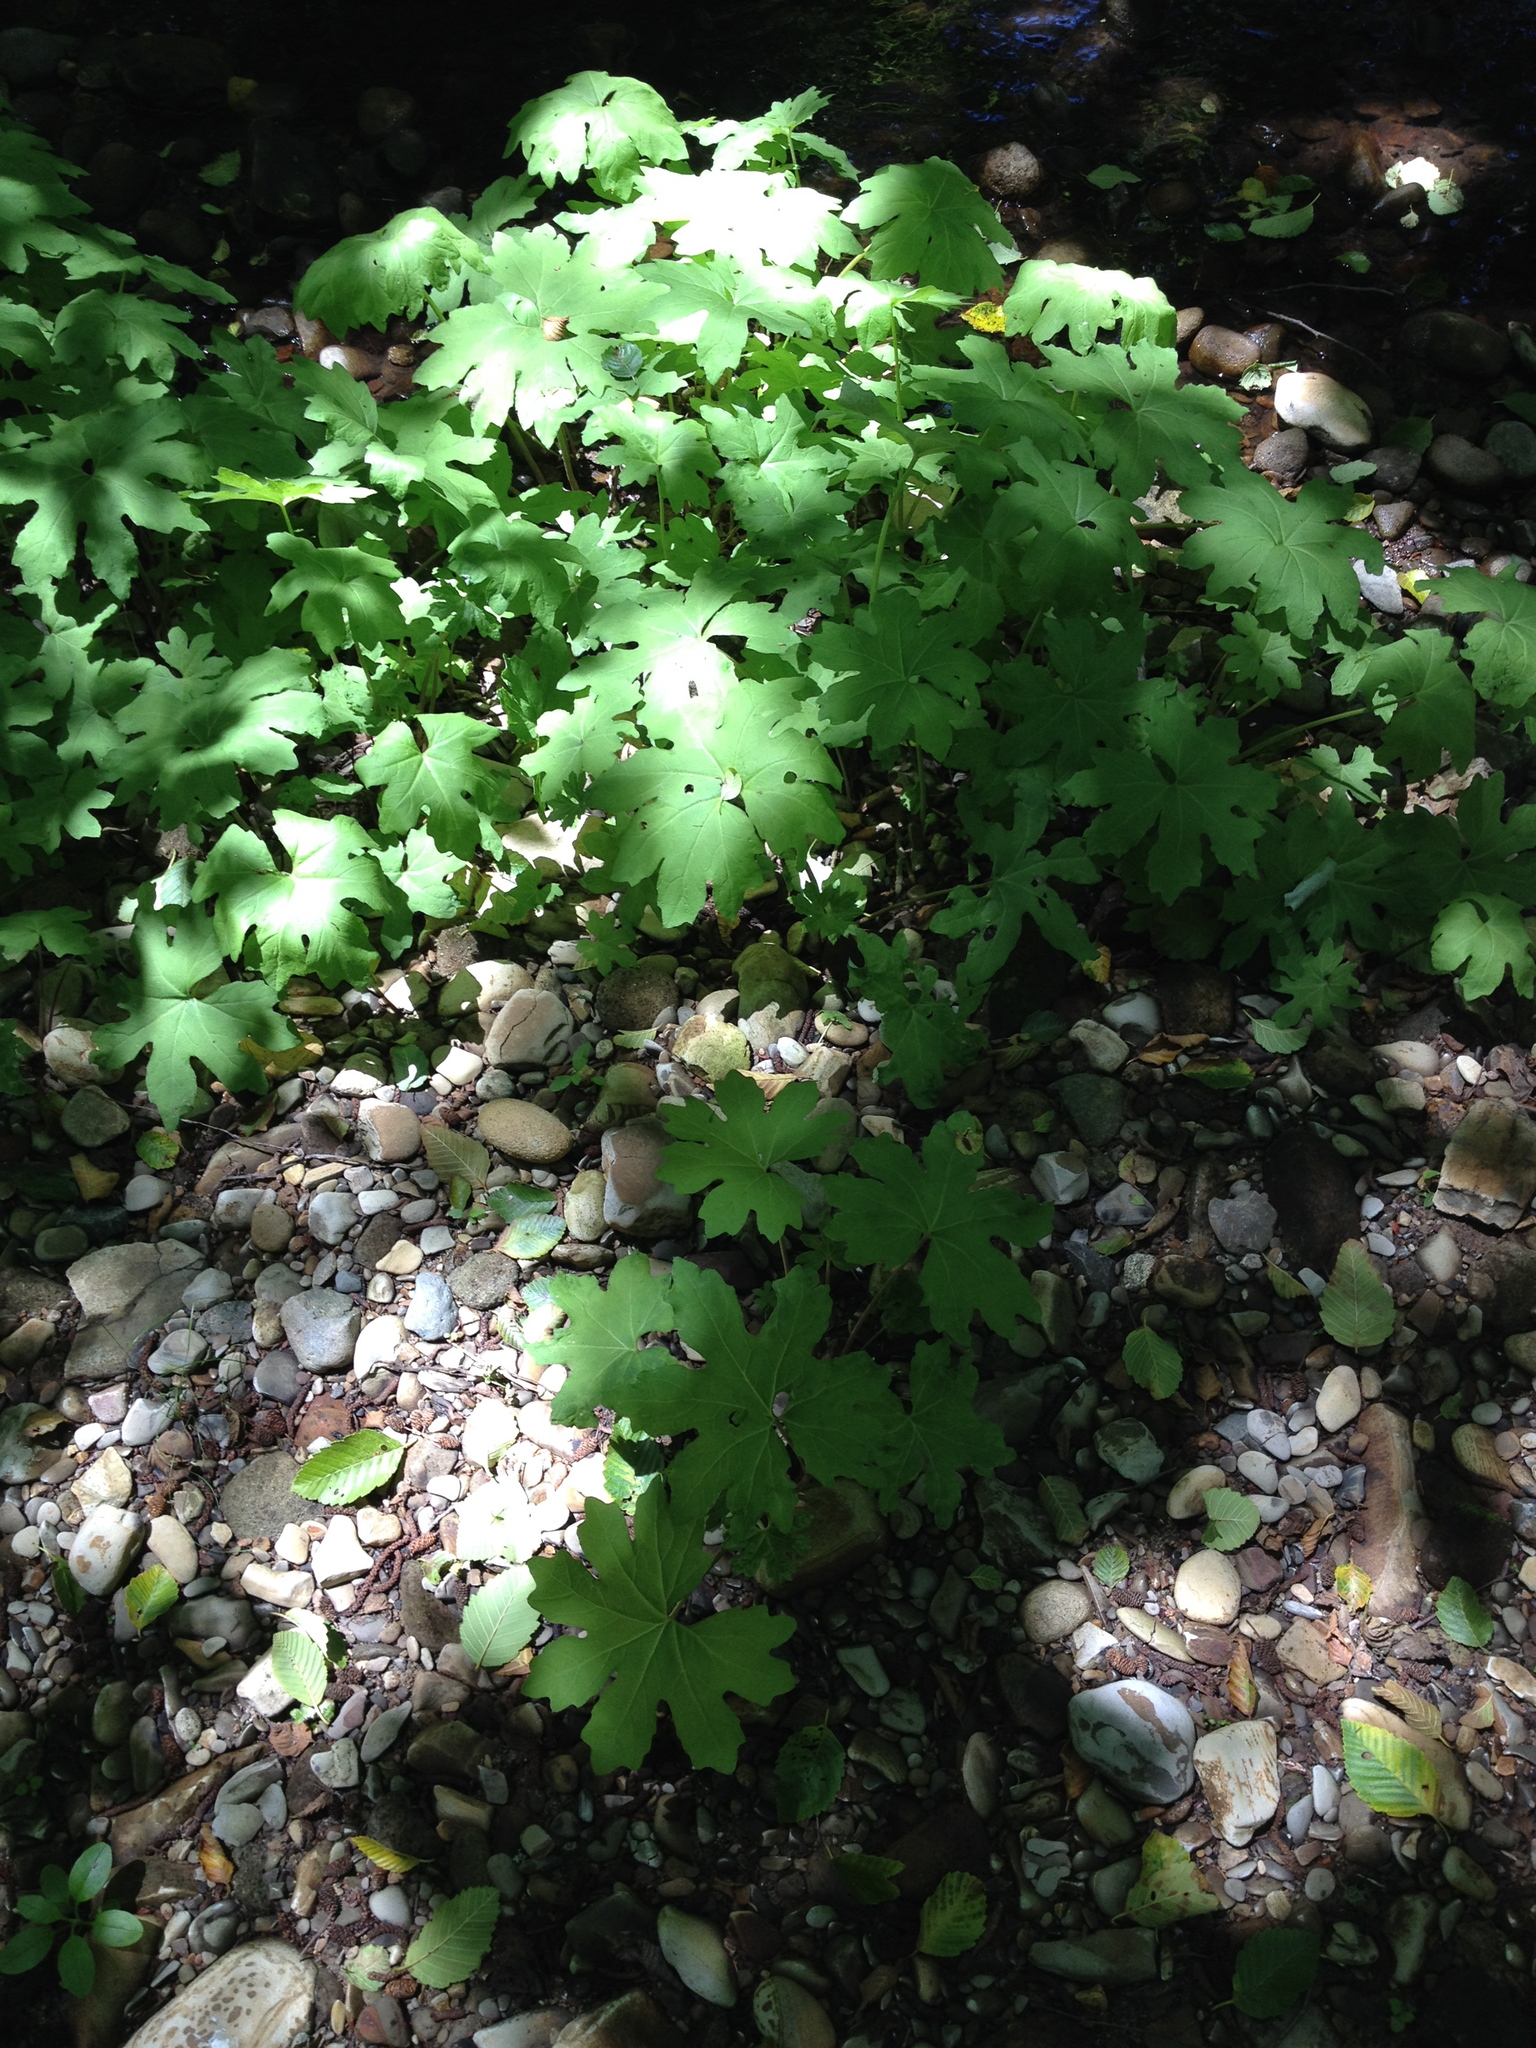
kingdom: Plantae
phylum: Tracheophyta
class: Magnoliopsida
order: Asterales
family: Asteraceae
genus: Petasites
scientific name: Petasites frigidus
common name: Arctic butterbur
